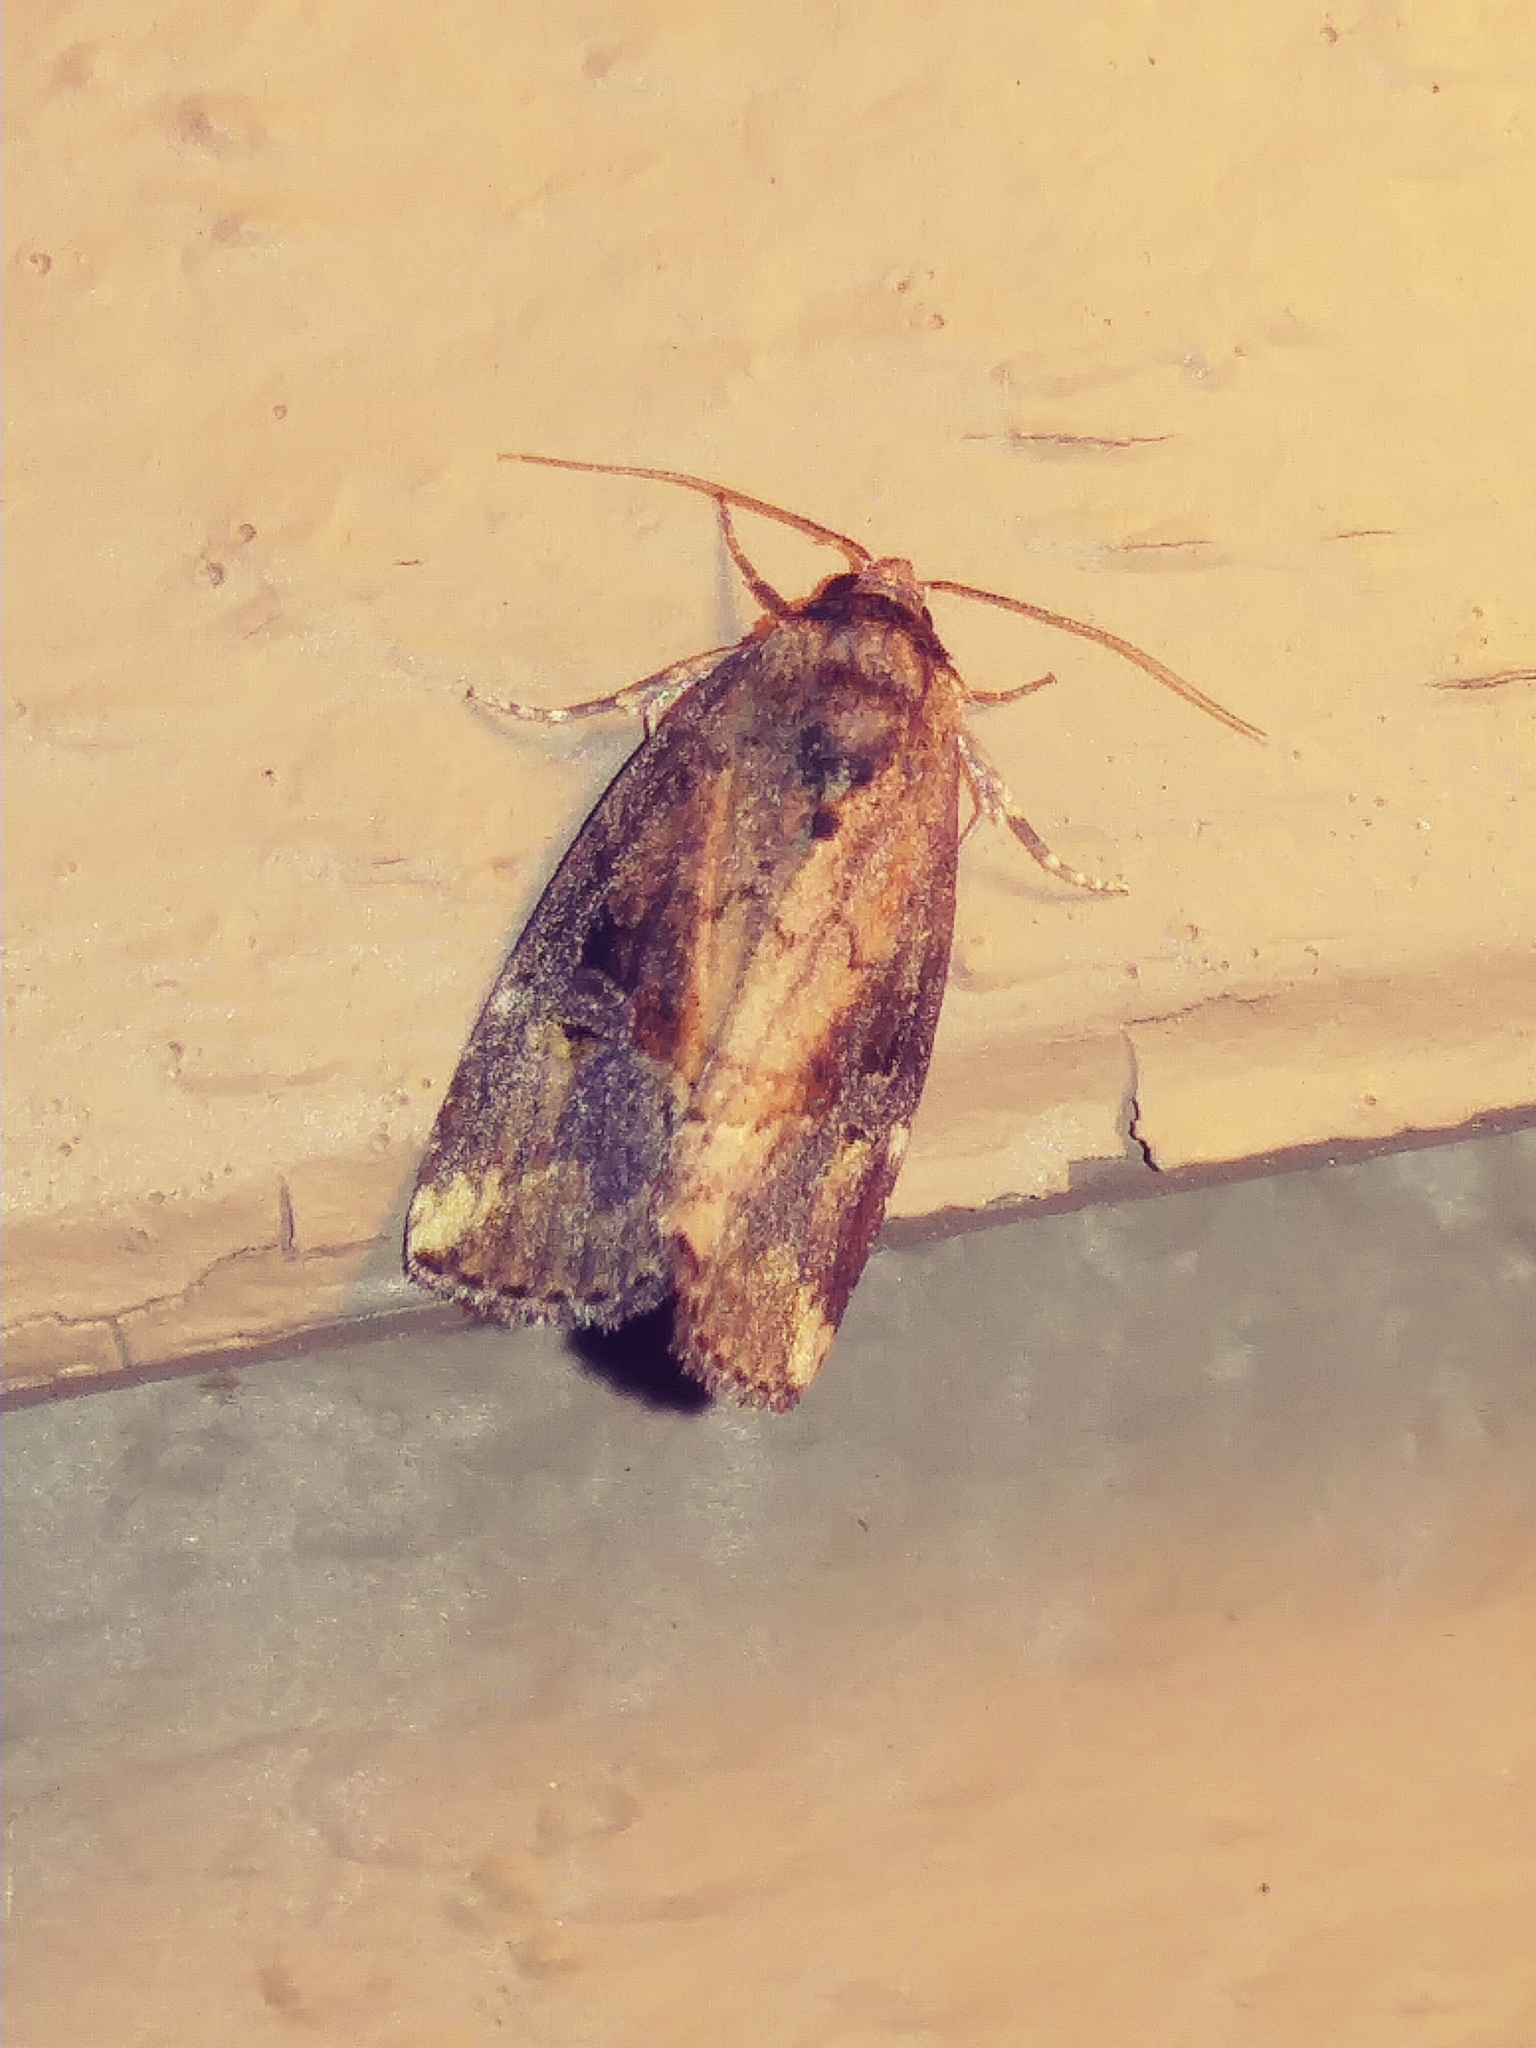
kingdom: Animalia
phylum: Arthropoda
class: Insecta
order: Lepidoptera
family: Noctuidae
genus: Elaphria
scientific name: Elaphria versicolor
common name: Fir harlequin
